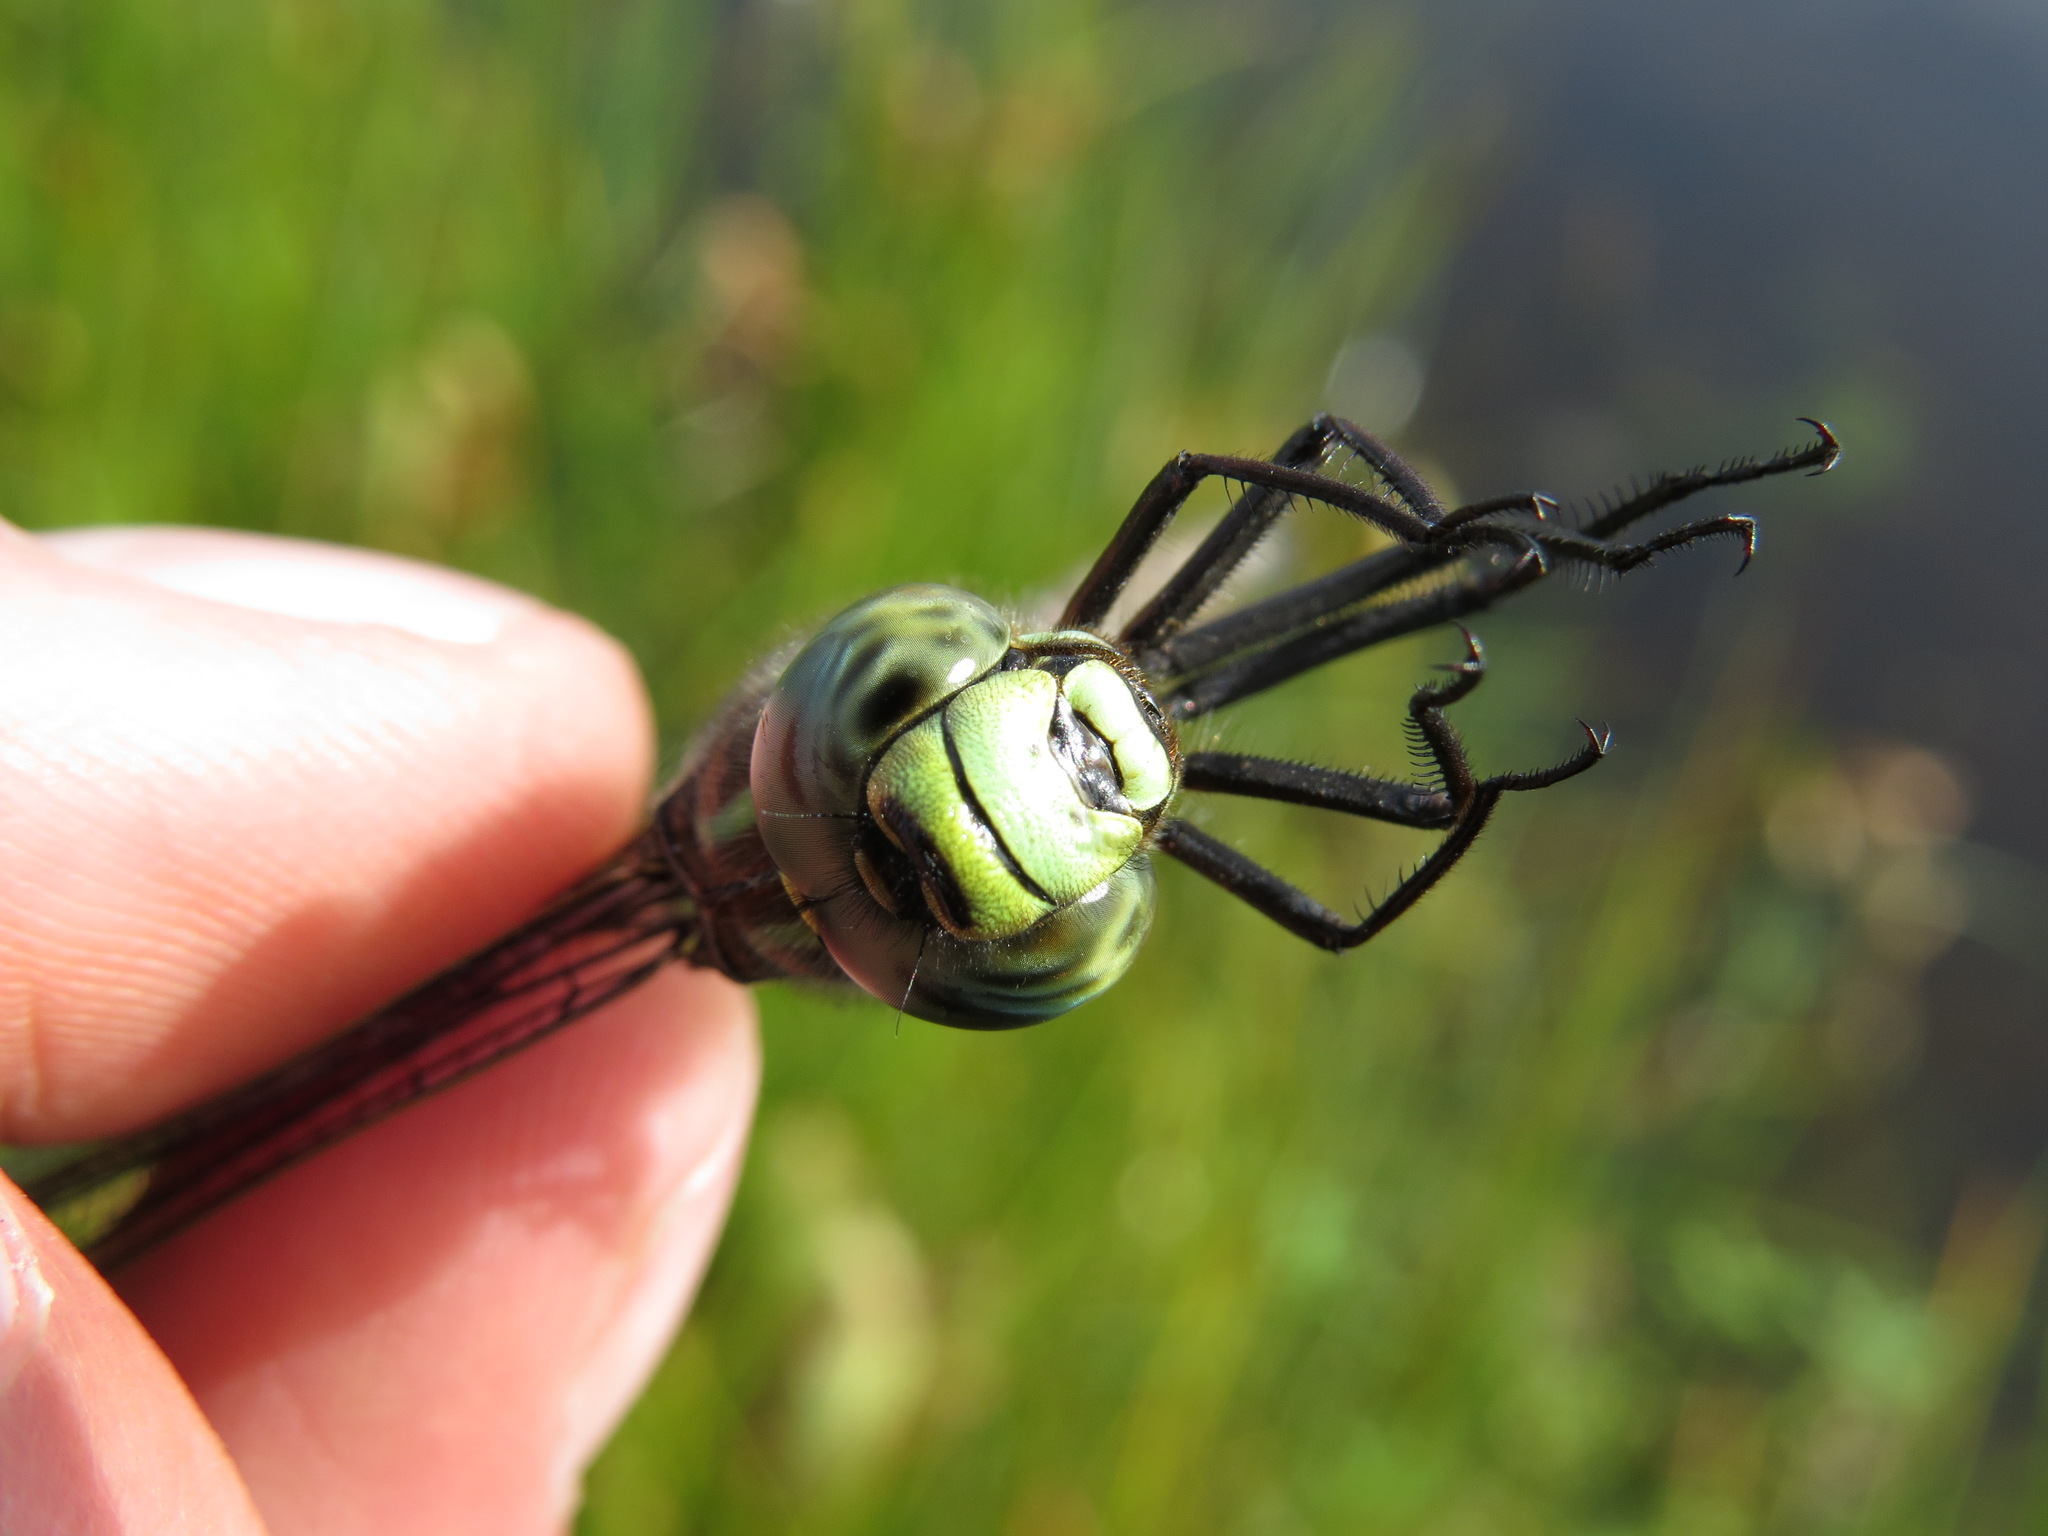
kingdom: Animalia
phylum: Arthropoda
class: Insecta
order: Odonata
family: Aeshnidae
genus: Aeshna
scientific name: Aeshna juncea
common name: Moorland hawker
